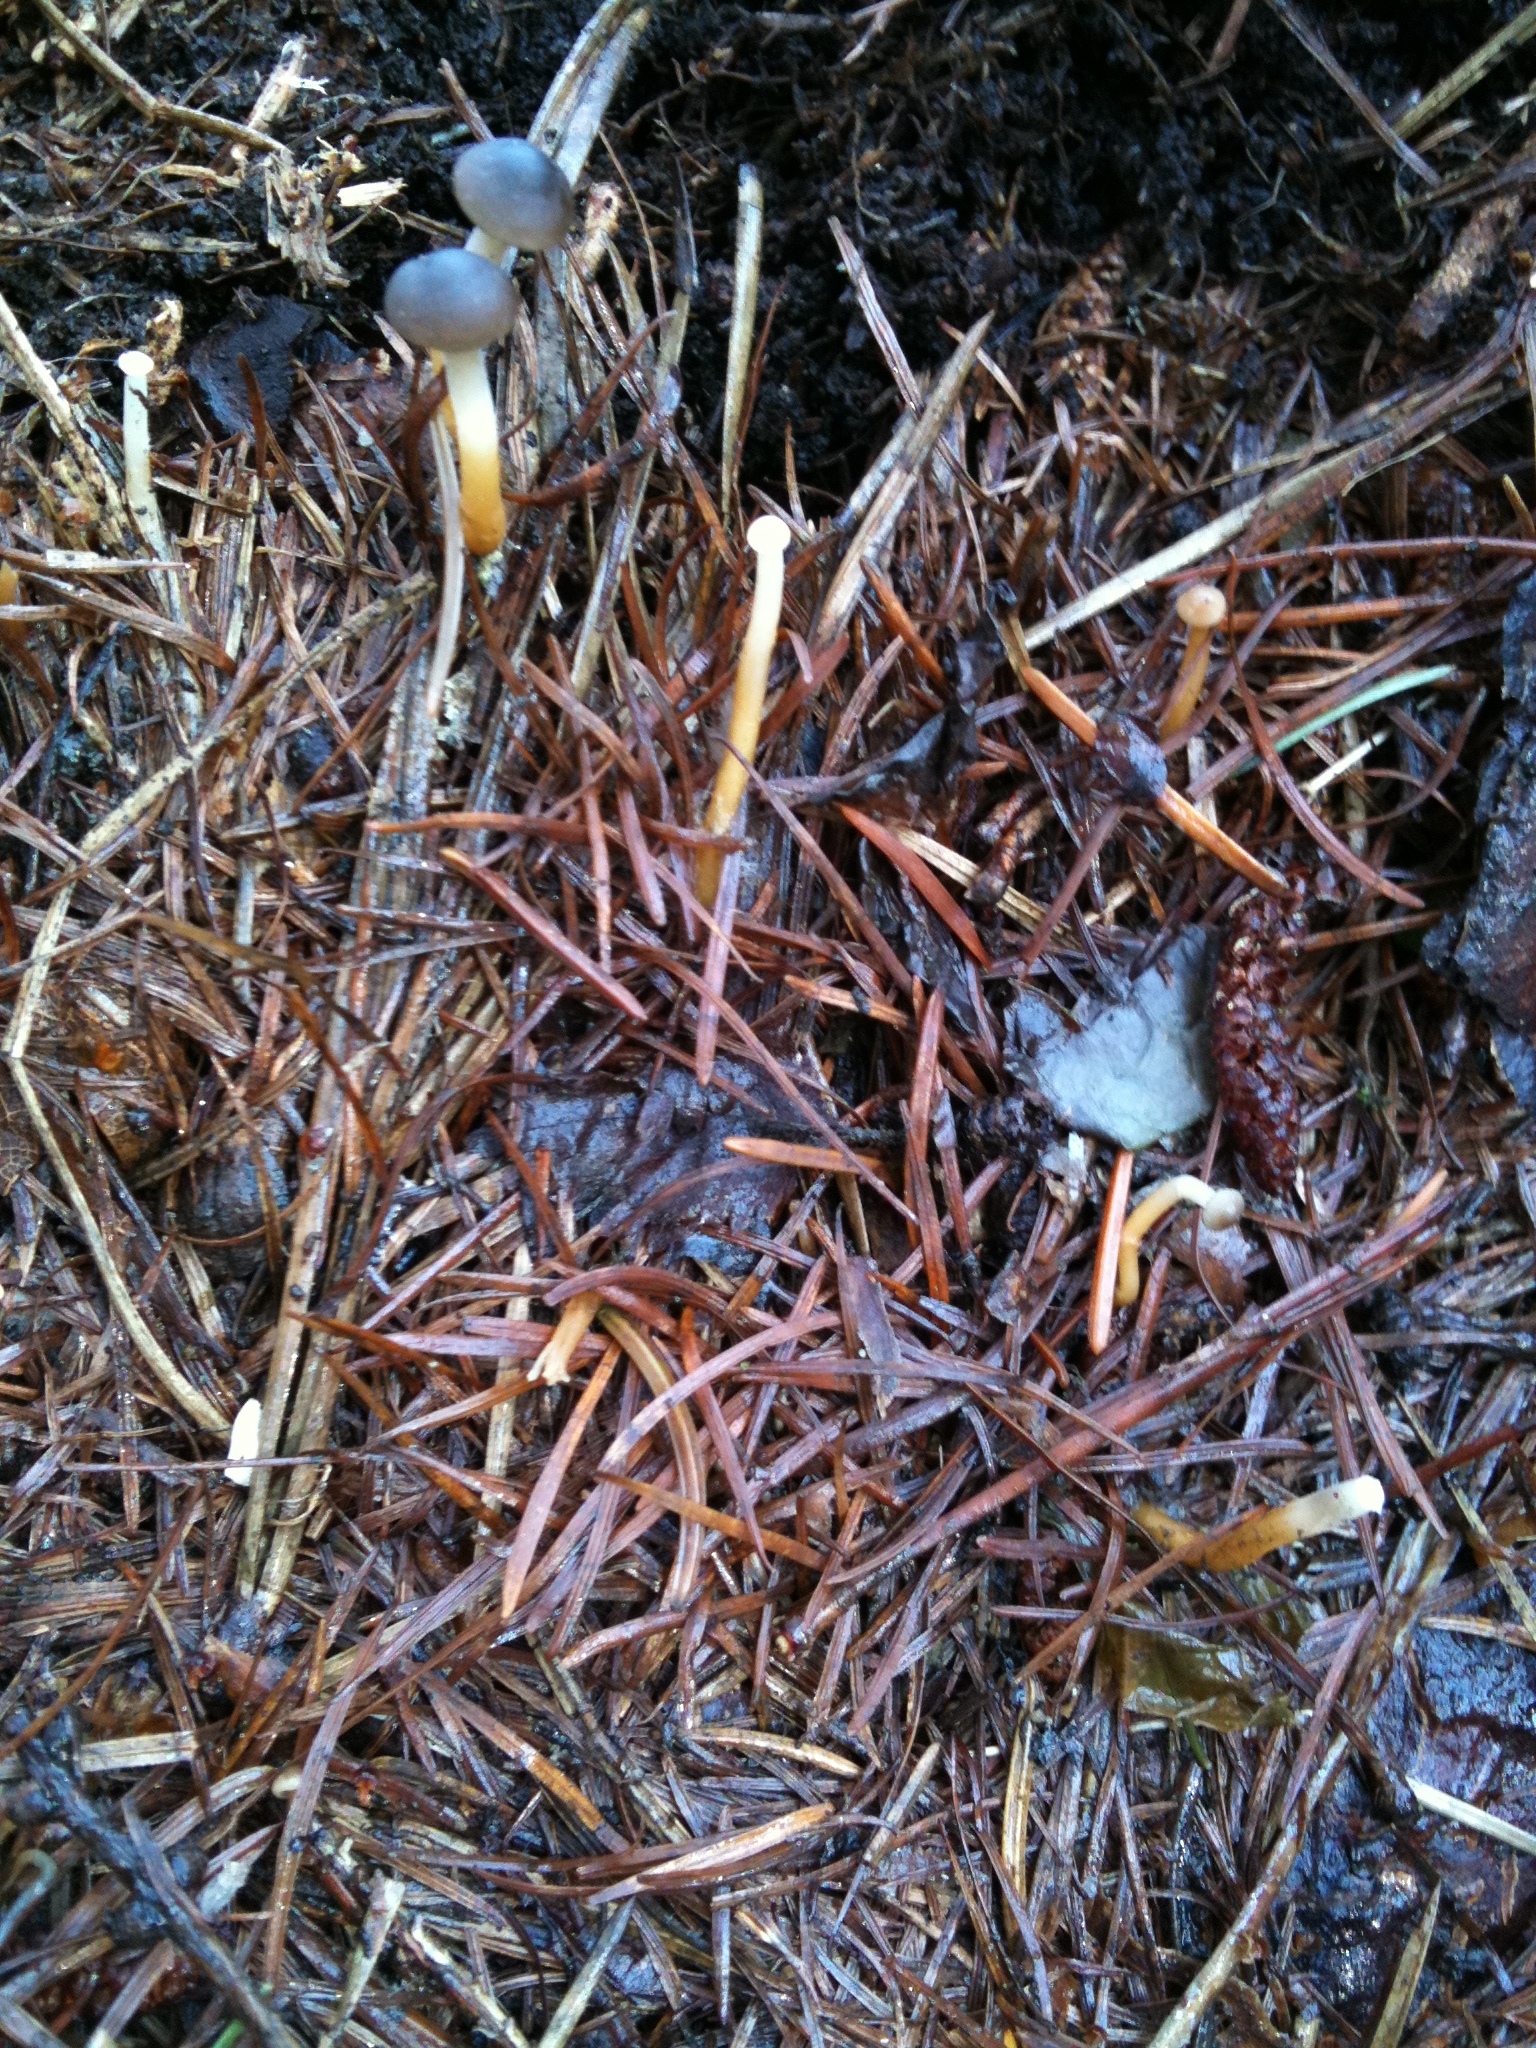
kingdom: Fungi
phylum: Basidiomycota
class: Agaricomycetes
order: Agaricales
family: Physalacriaceae
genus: Strobilurus
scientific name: Strobilurus stephanocystis
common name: Russian conecap
